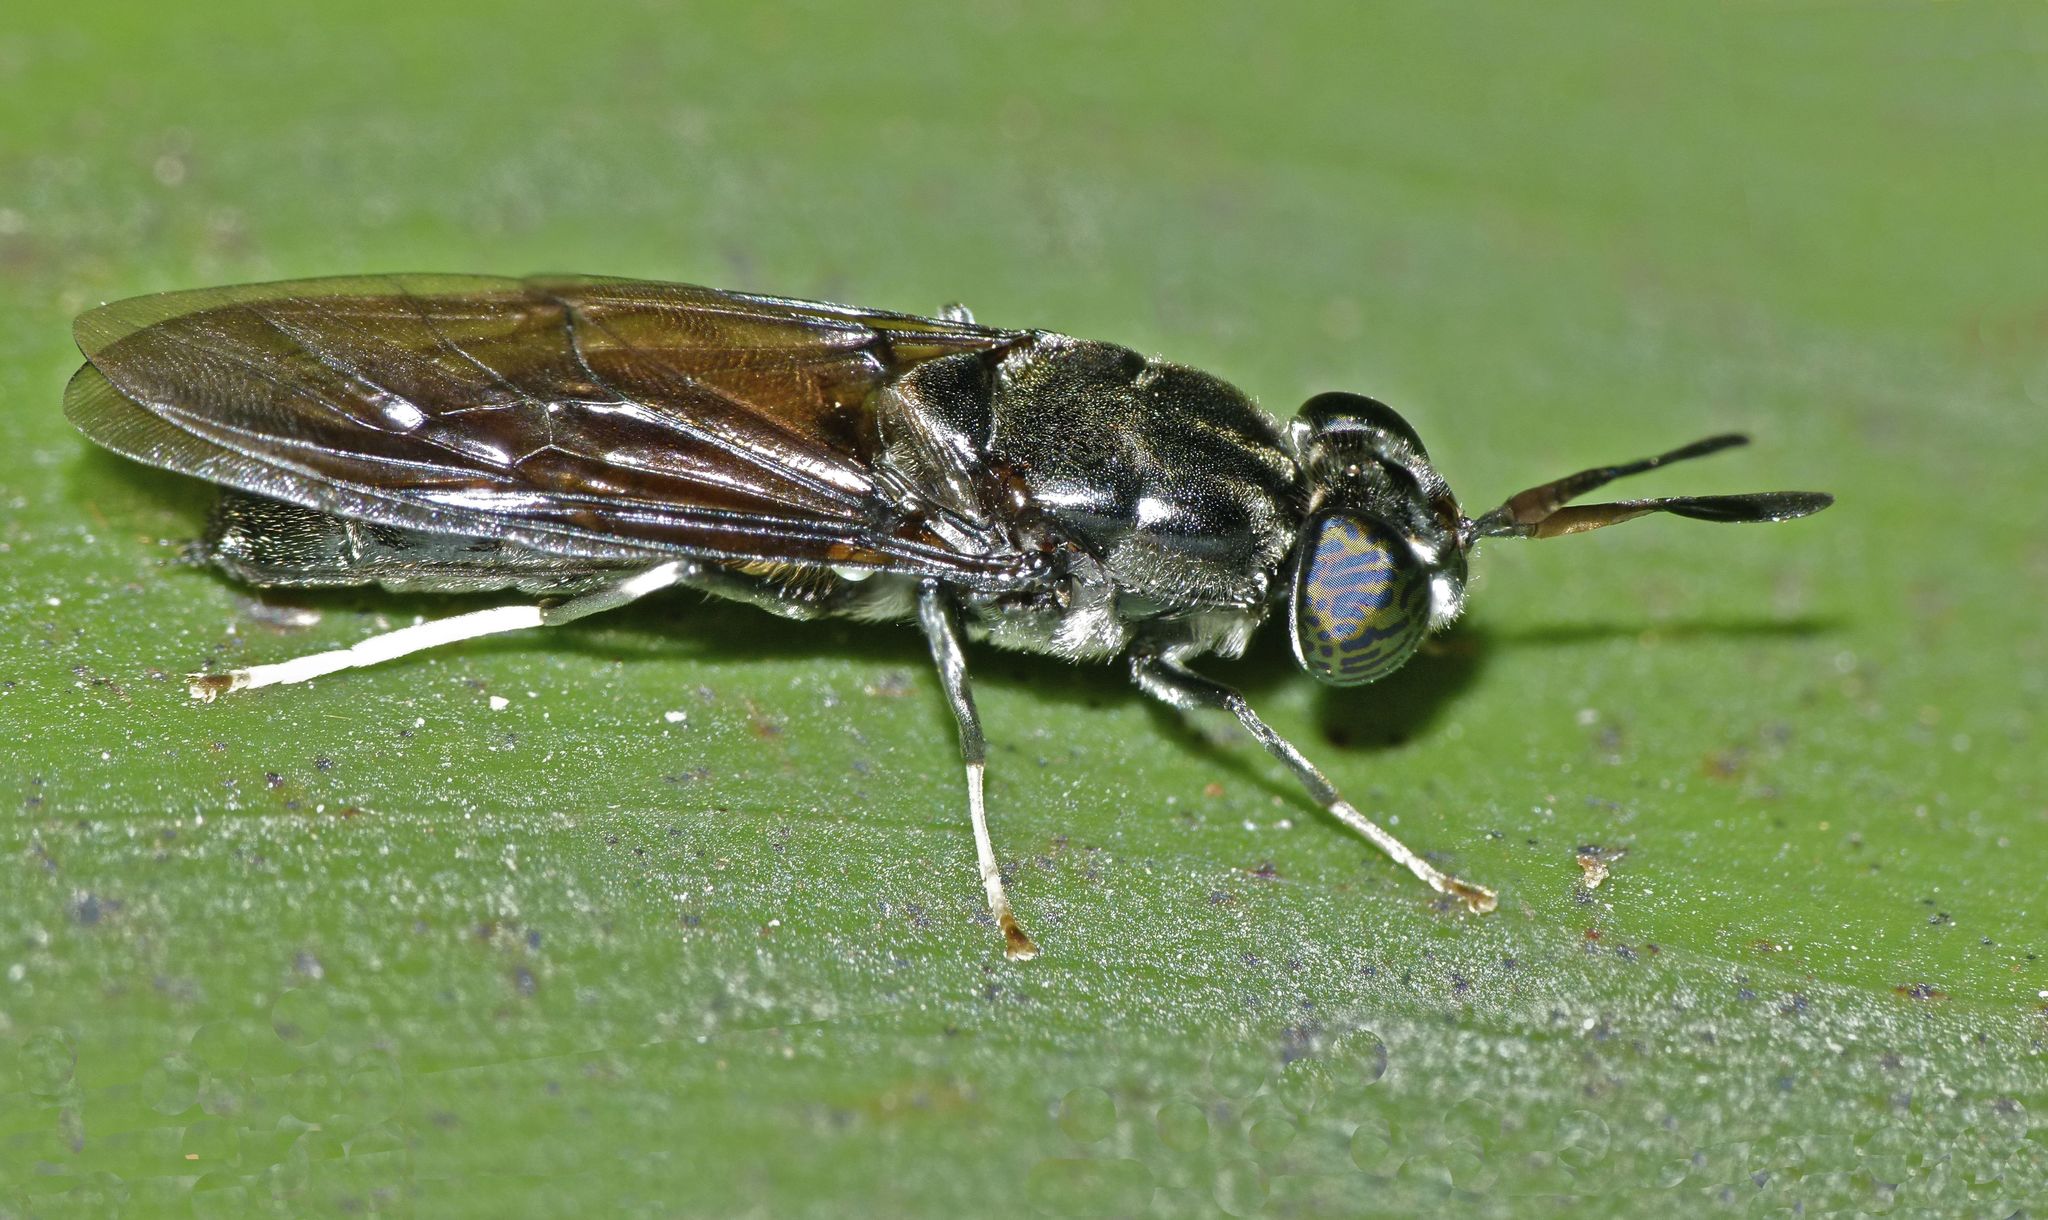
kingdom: Animalia
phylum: Arthropoda
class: Insecta
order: Diptera
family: Stratiomyidae
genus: Hermetia
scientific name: Hermetia illucens
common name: Black soldier fly
